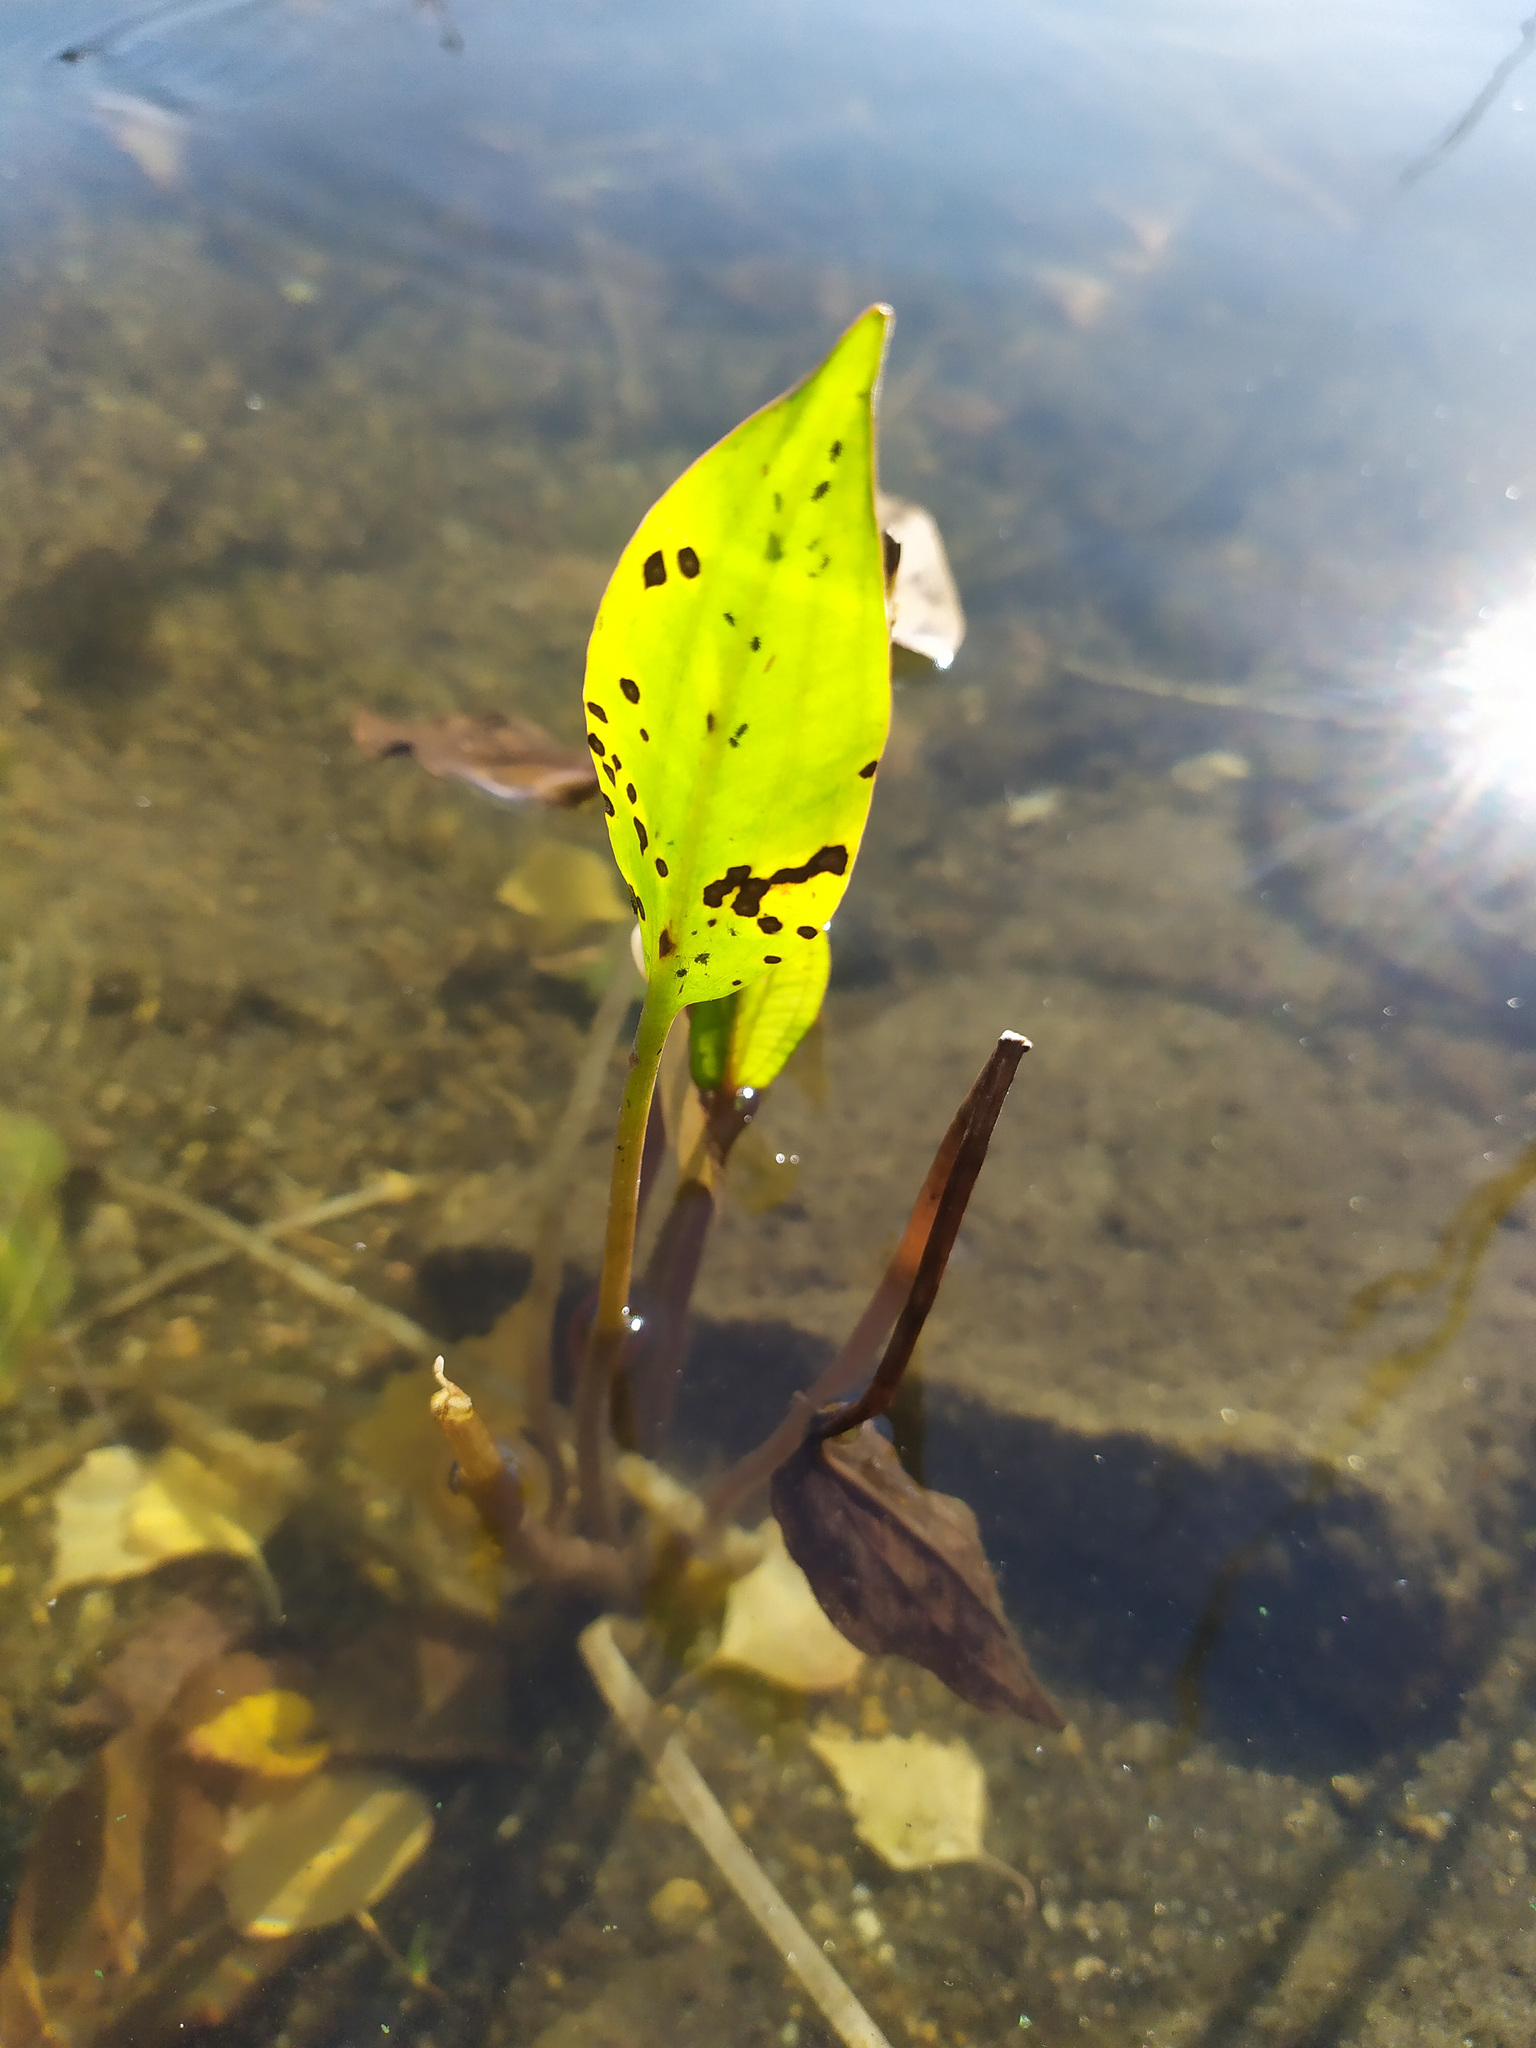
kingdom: Plantae
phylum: Tracheophyta
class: Liliopsida
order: Alismatales
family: Alismataceae
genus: Alisma
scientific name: Alisma plantago-aquatica
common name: Water-plantain
